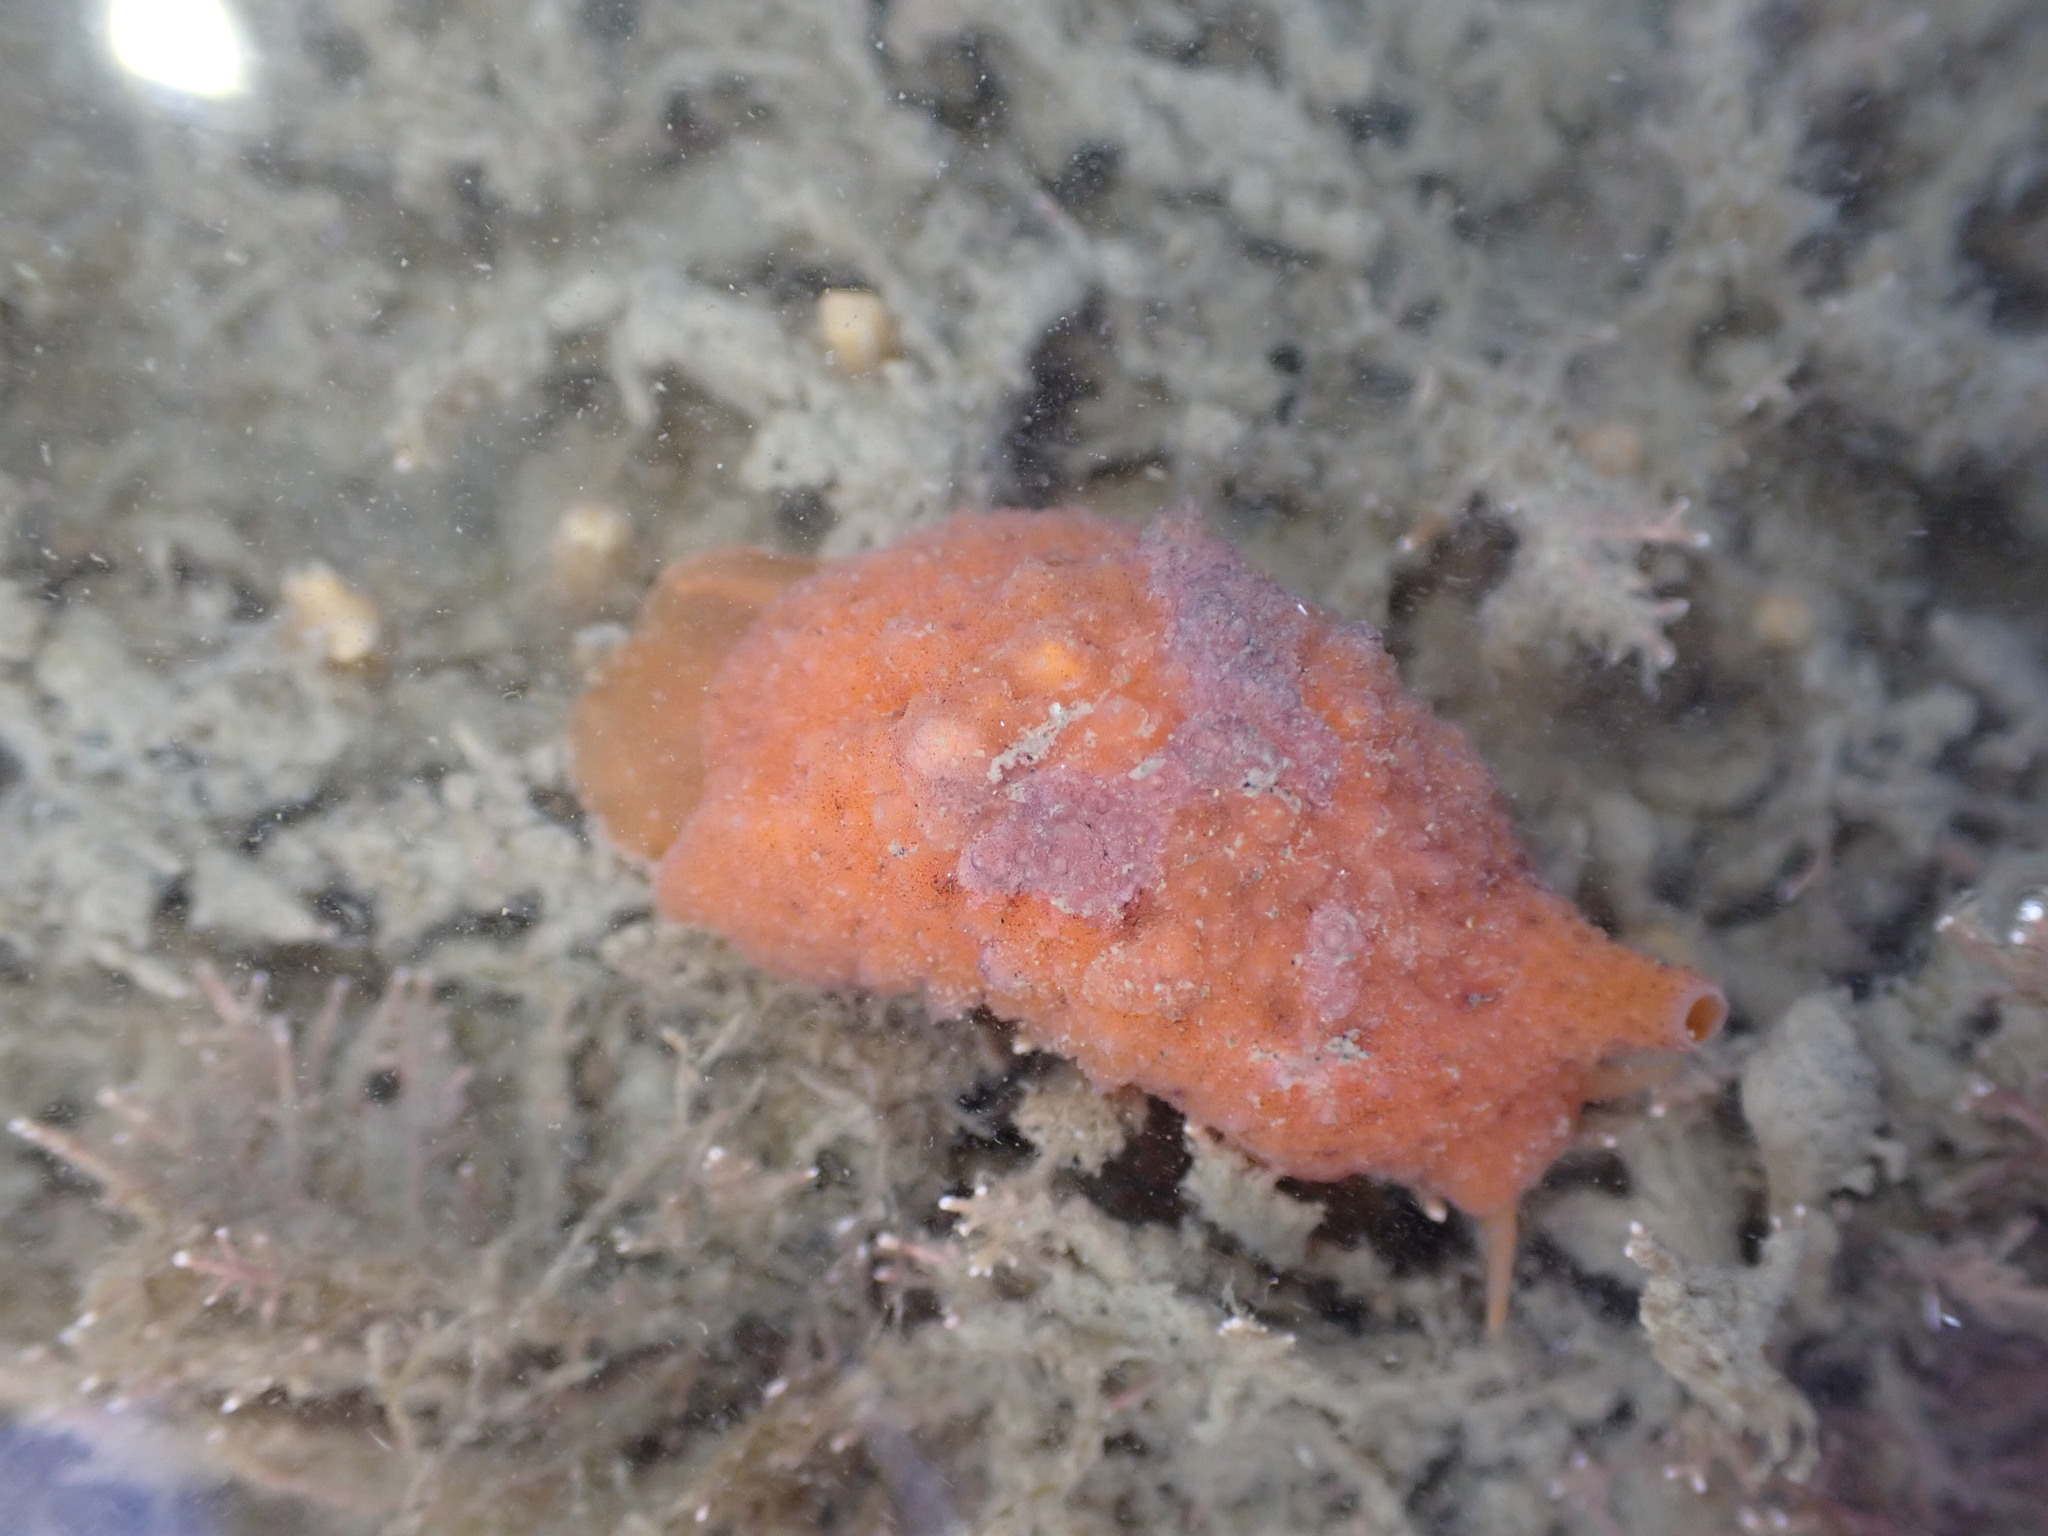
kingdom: Animalia
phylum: Mollusca
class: Gastropoda
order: Littorinimorpha
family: Velutinidae
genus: Lamellaria
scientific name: Lamellaria ophione
